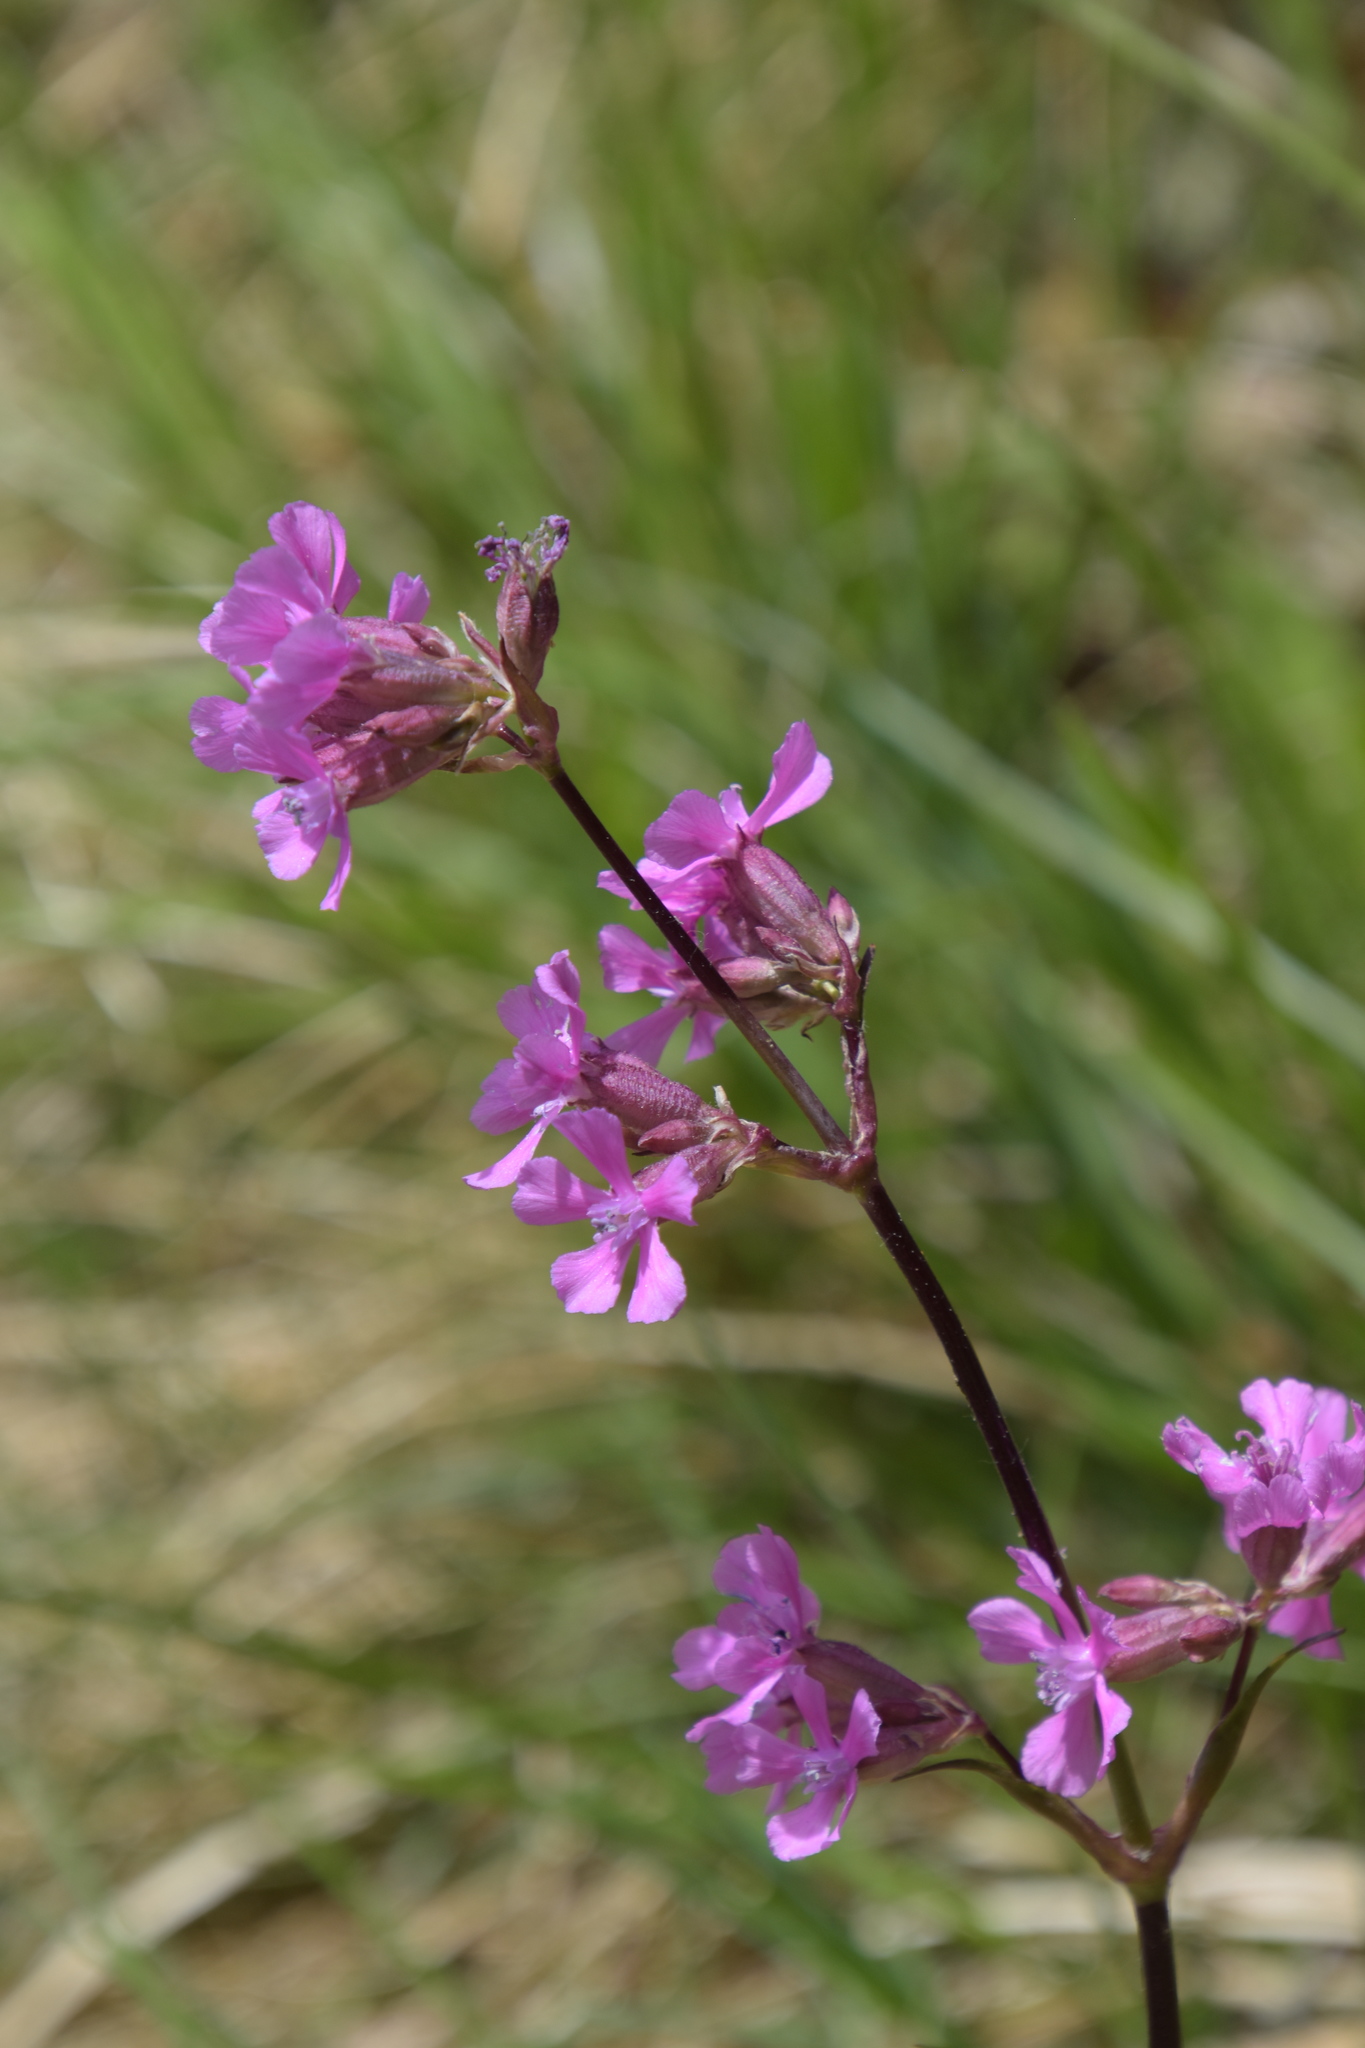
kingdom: Plantae
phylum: Tracheophyta
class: Magnoliopsida
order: Caryophyllales
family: Caryophyllaceae
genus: Viscaria
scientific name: Viscaria vulgaris
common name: Clammy campion
